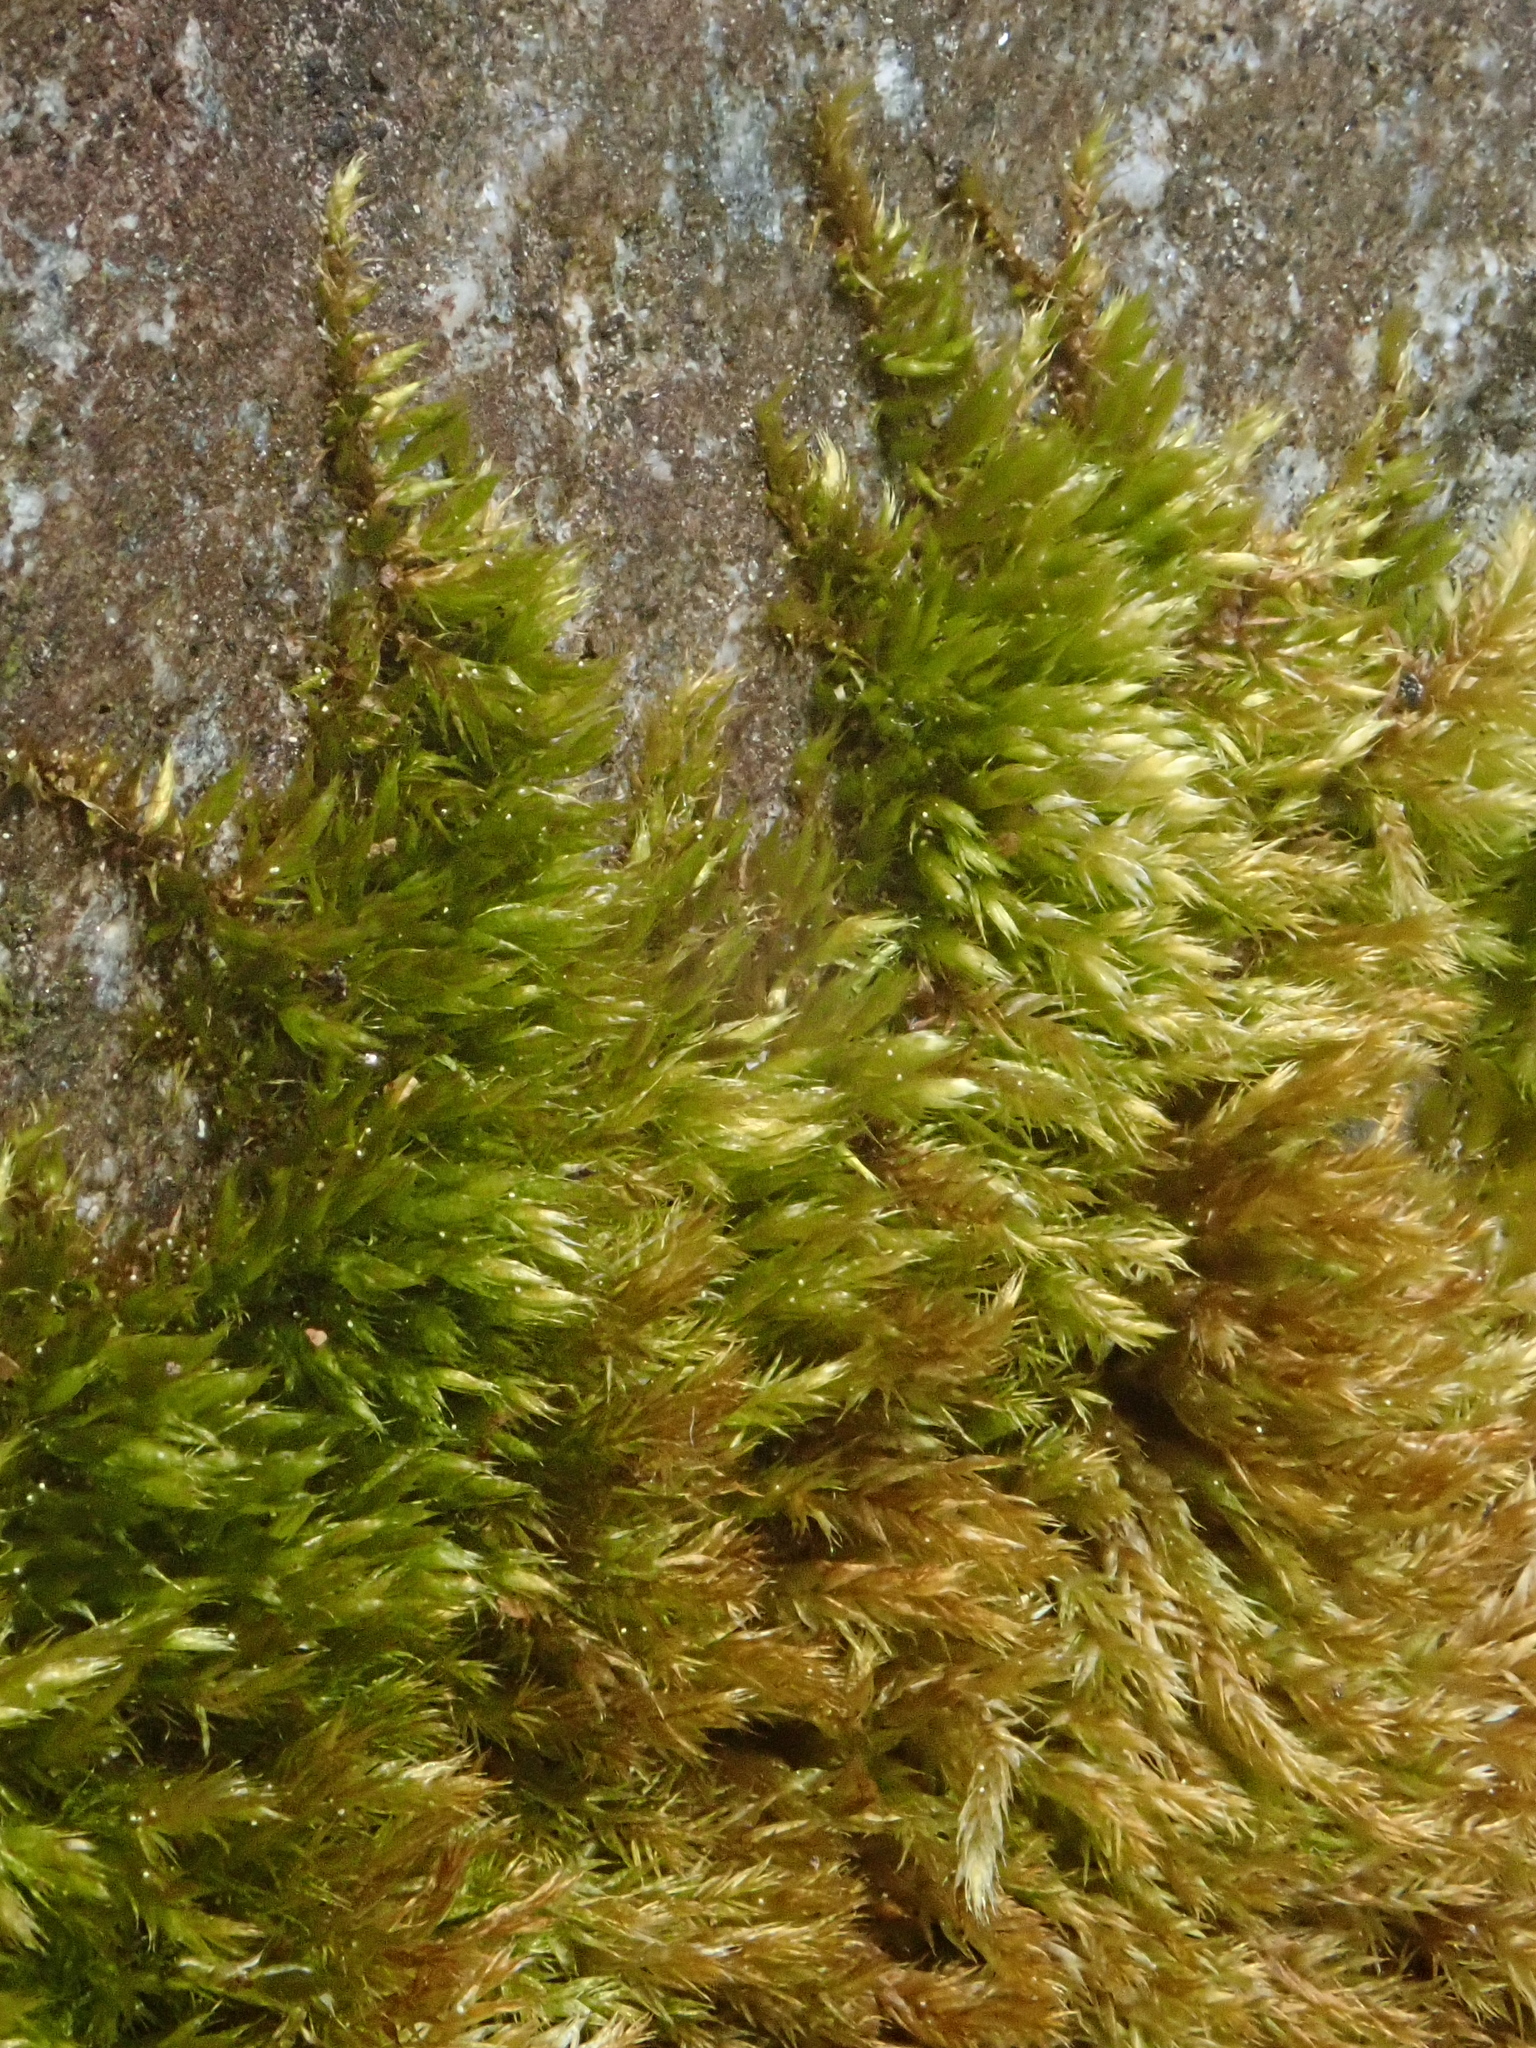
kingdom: Plantae
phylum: Bryophyta
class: Bryopsida
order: Hypnales
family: Brachytheciaceae
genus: Homalothecium
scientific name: Homalothecium sericeum
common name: Silky wall feather-moss
